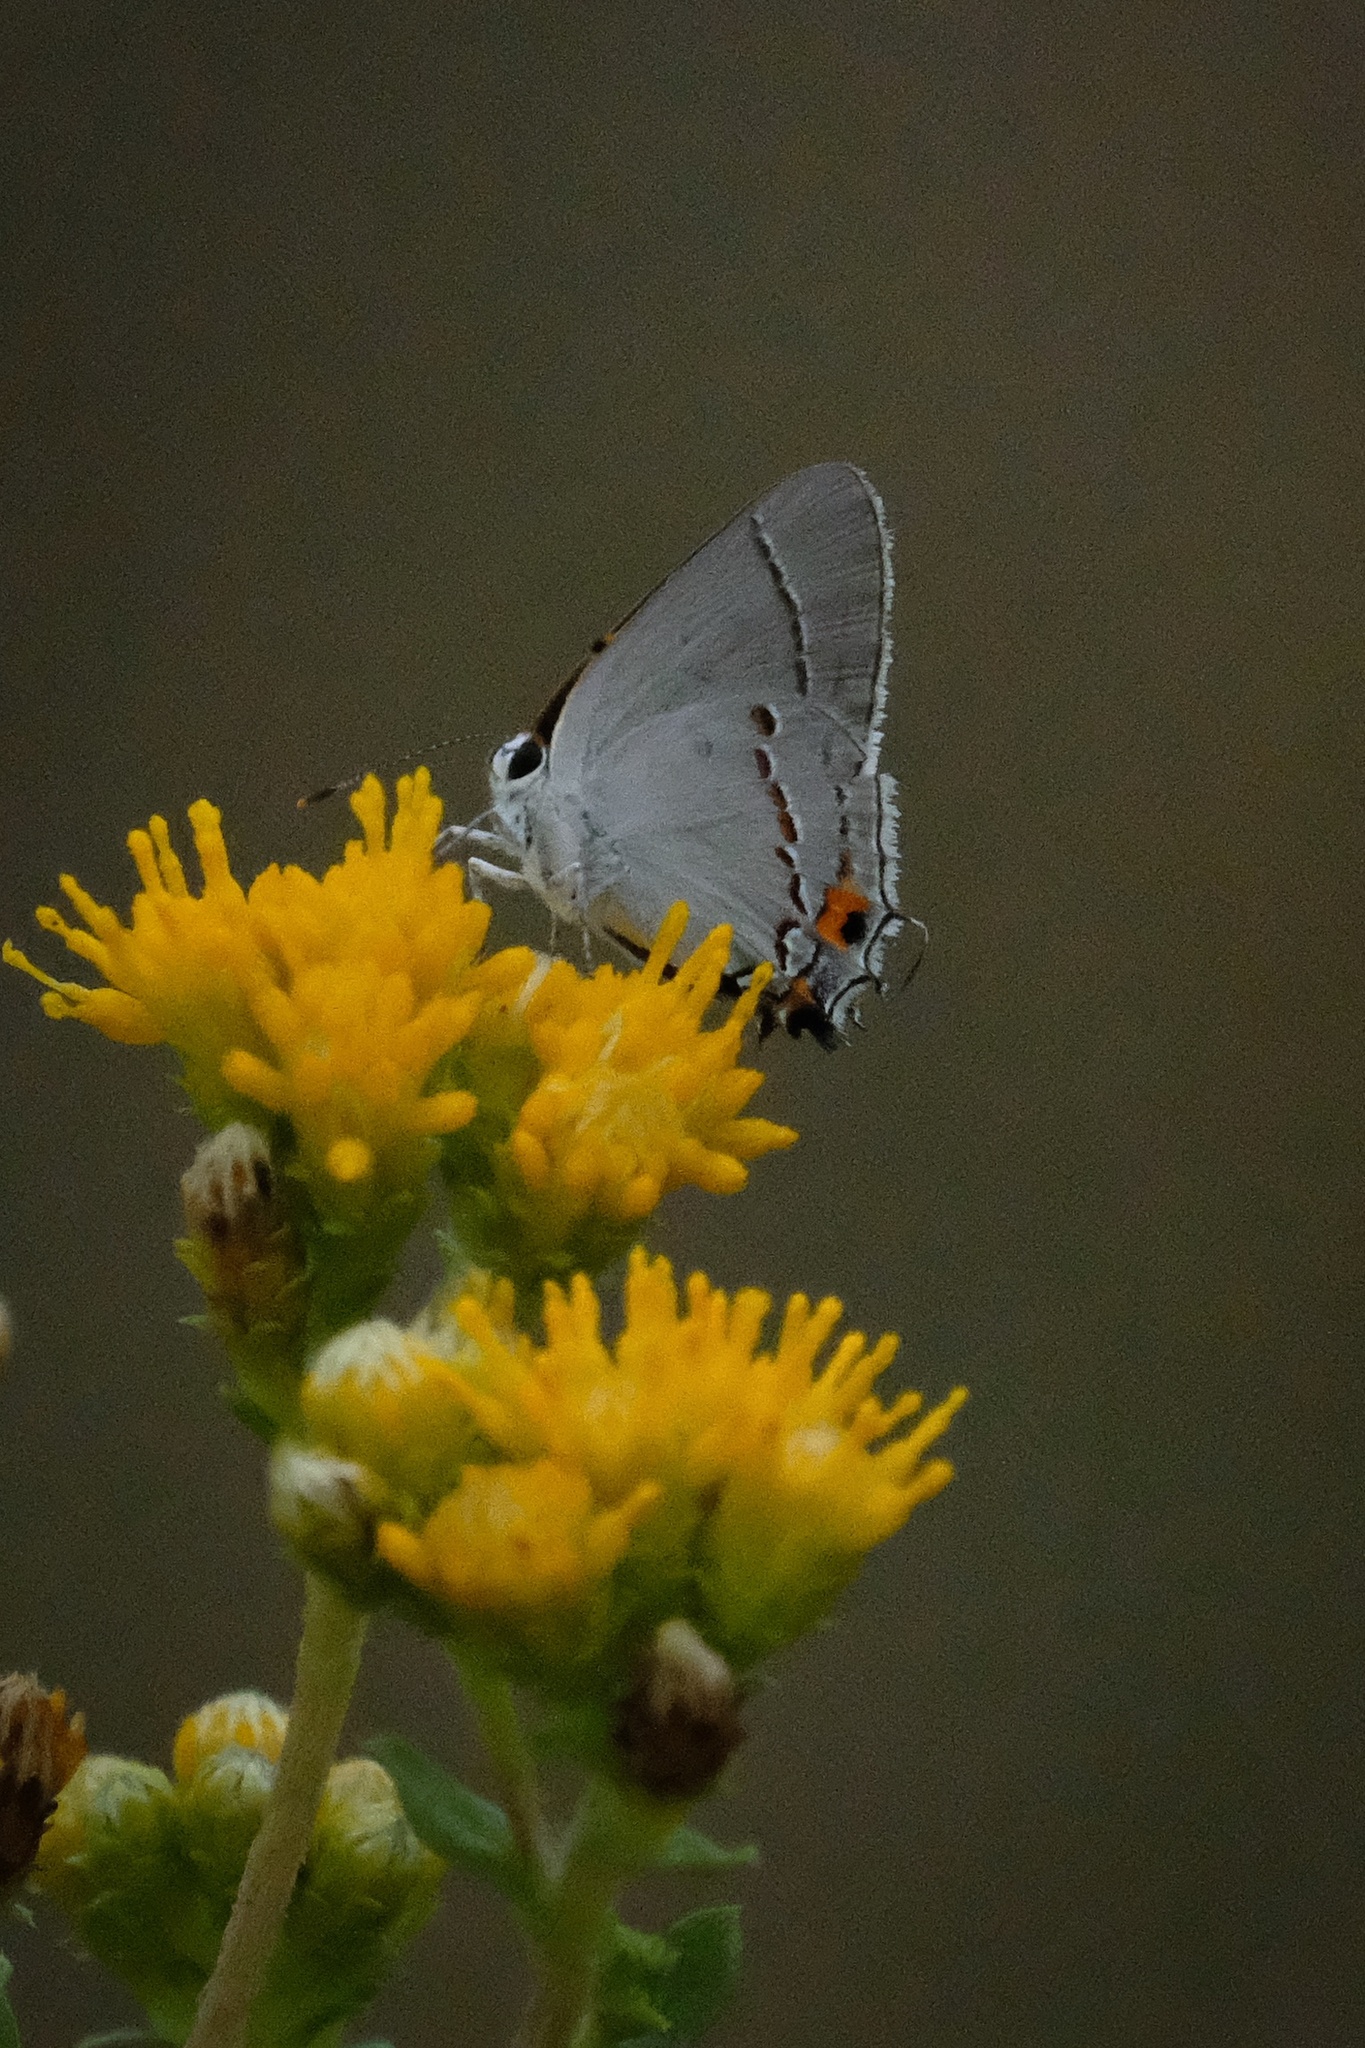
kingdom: Animalia
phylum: Arthropoda
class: Insecta
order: Lepidoptera
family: Lycaenidae
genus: Strymon
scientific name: Strymon melinus
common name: Gray hairstreak
